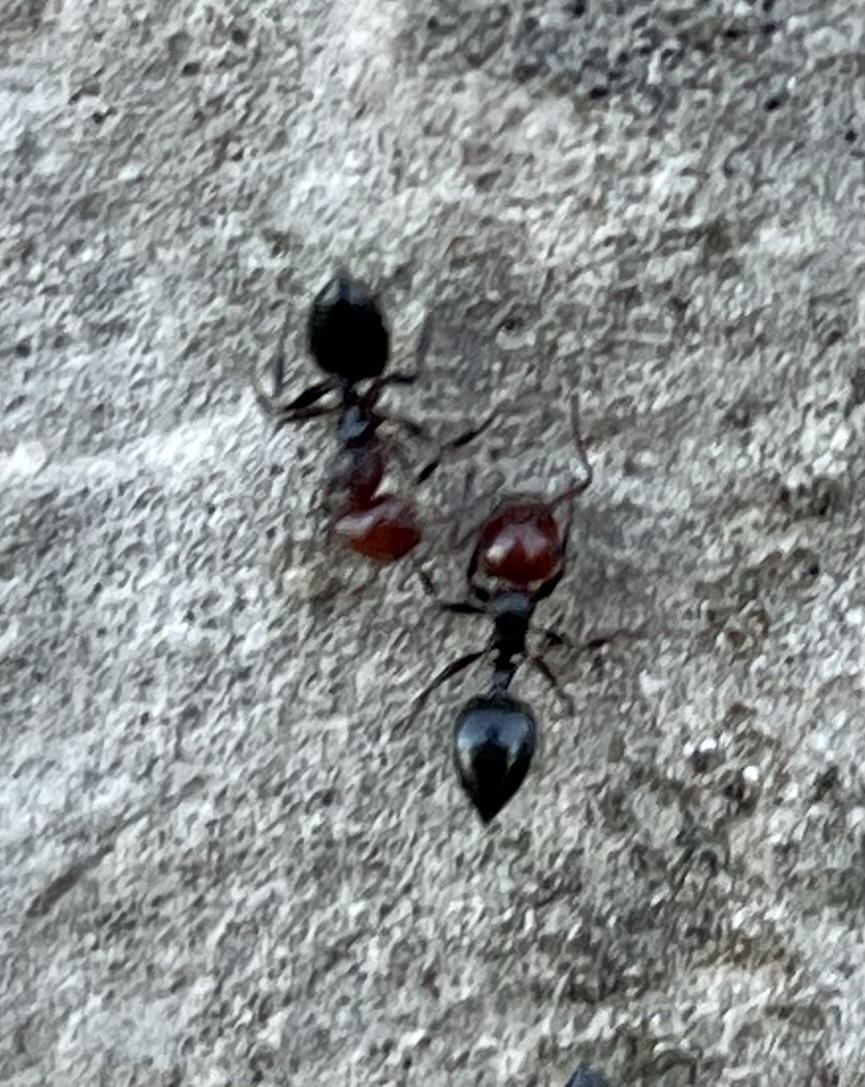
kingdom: Animalia
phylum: Arthropoda
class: Insecta
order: Hymenoptera
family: Formicidae
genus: Crematogaster
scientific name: Crematogaster scutellaris
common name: Fourmi du liège
